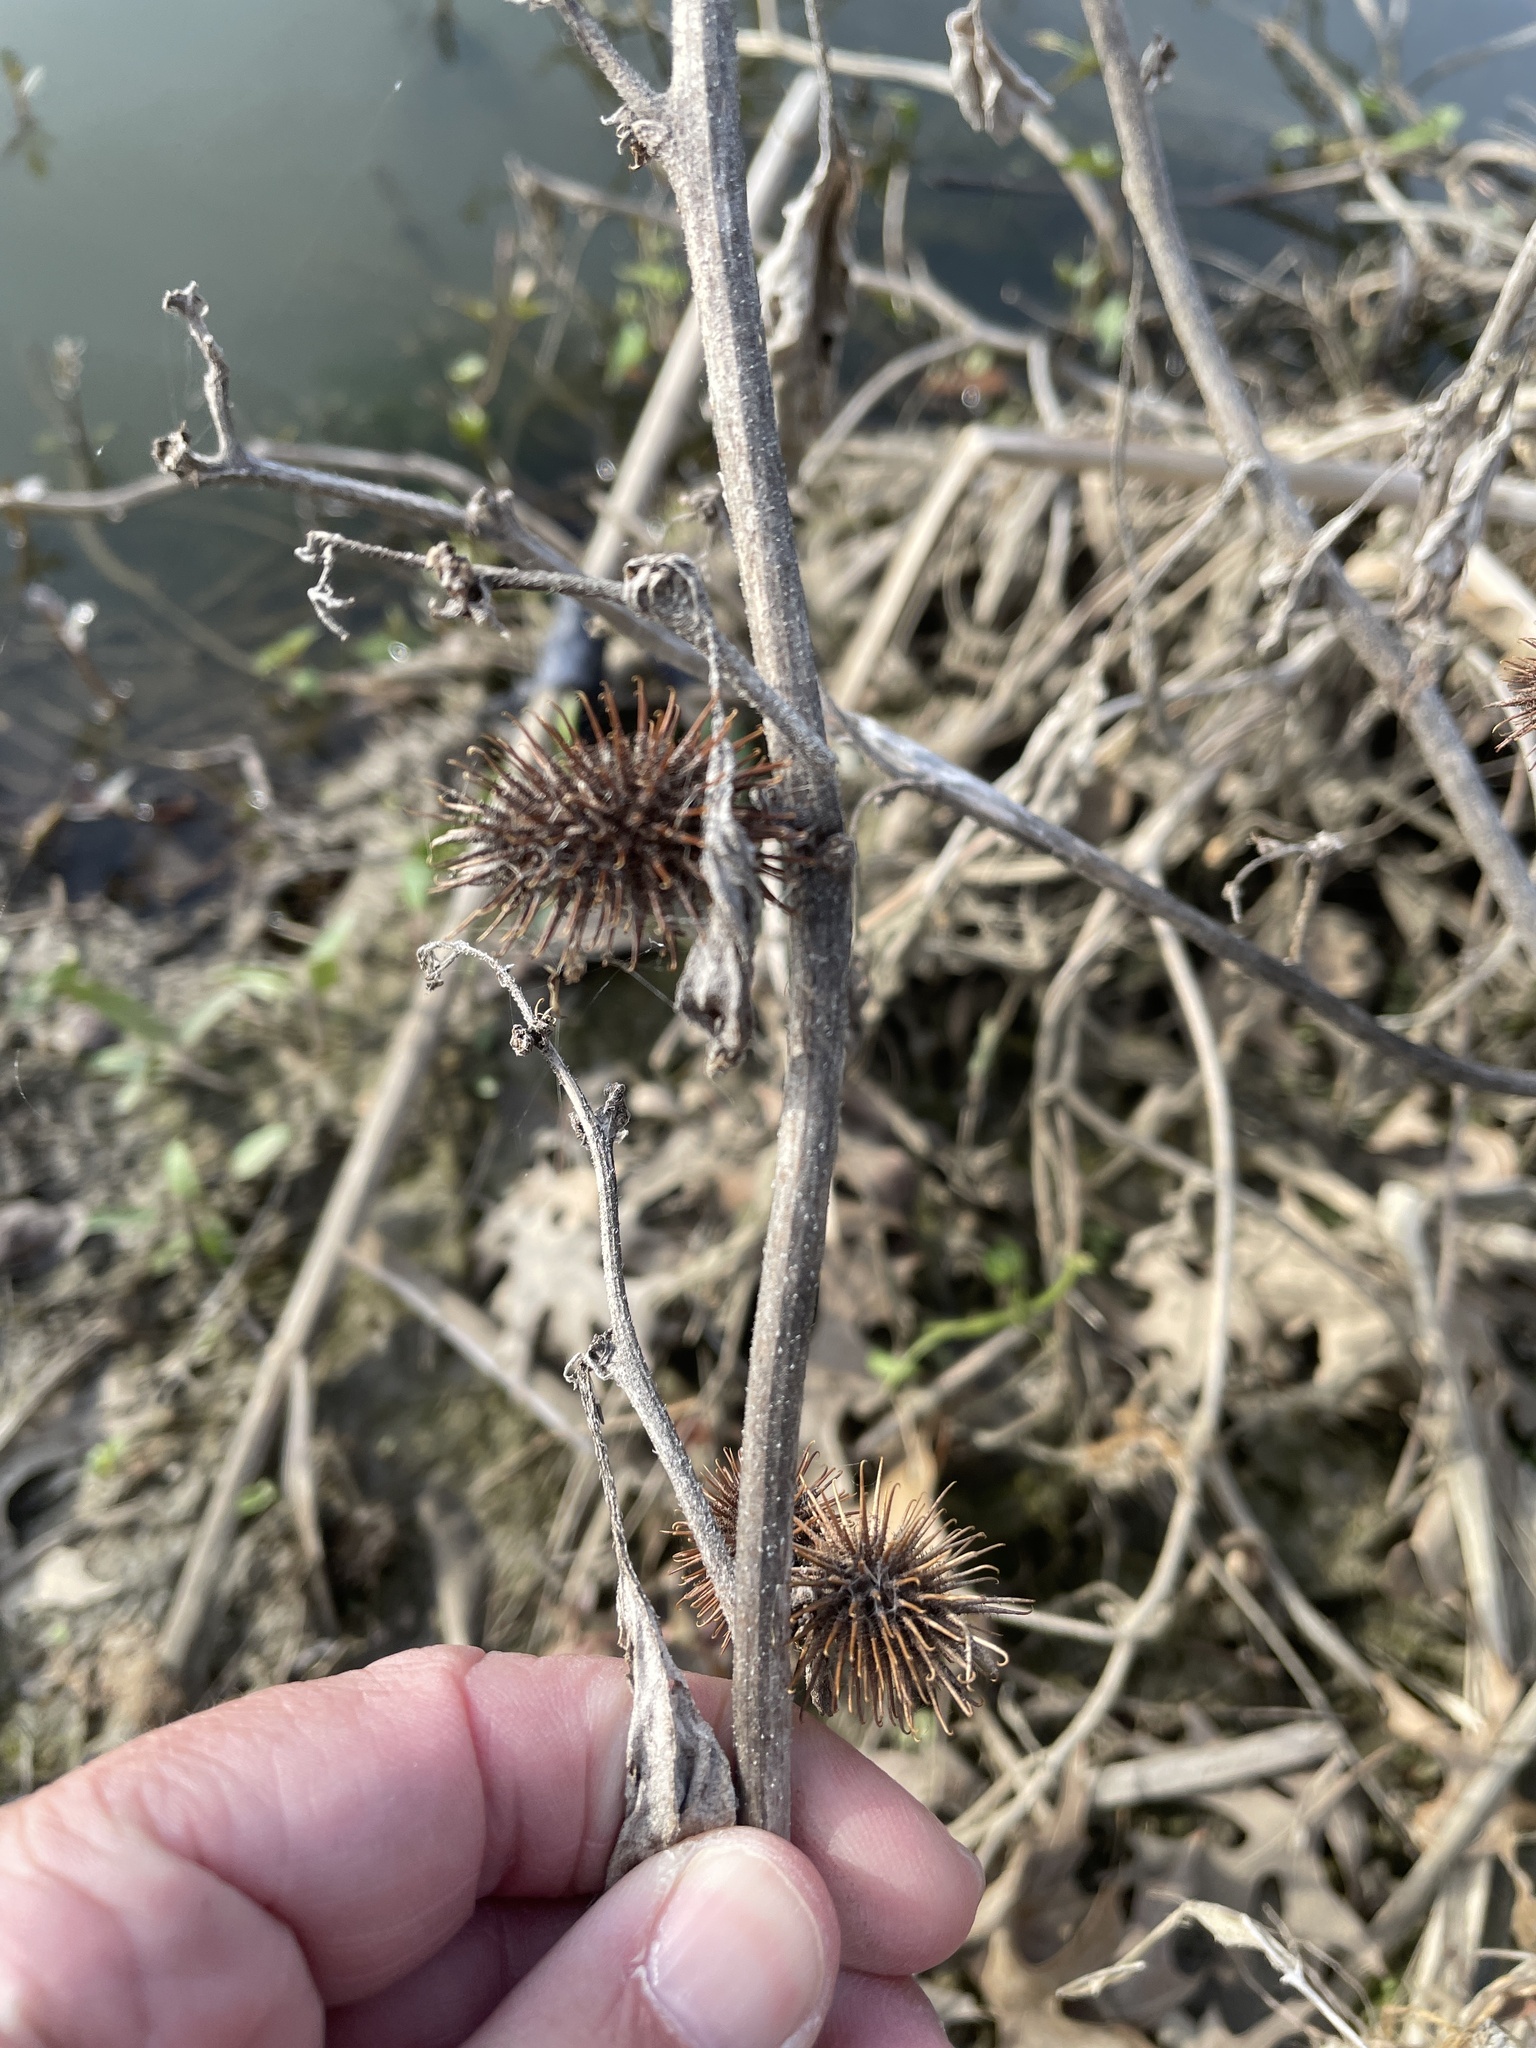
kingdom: Plantae
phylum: Tracheophyta
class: Magnoliopsida
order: Asterales
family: Asteraceae
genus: Xanthium
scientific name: Xanthium strumarium
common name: Rough cocklebur
